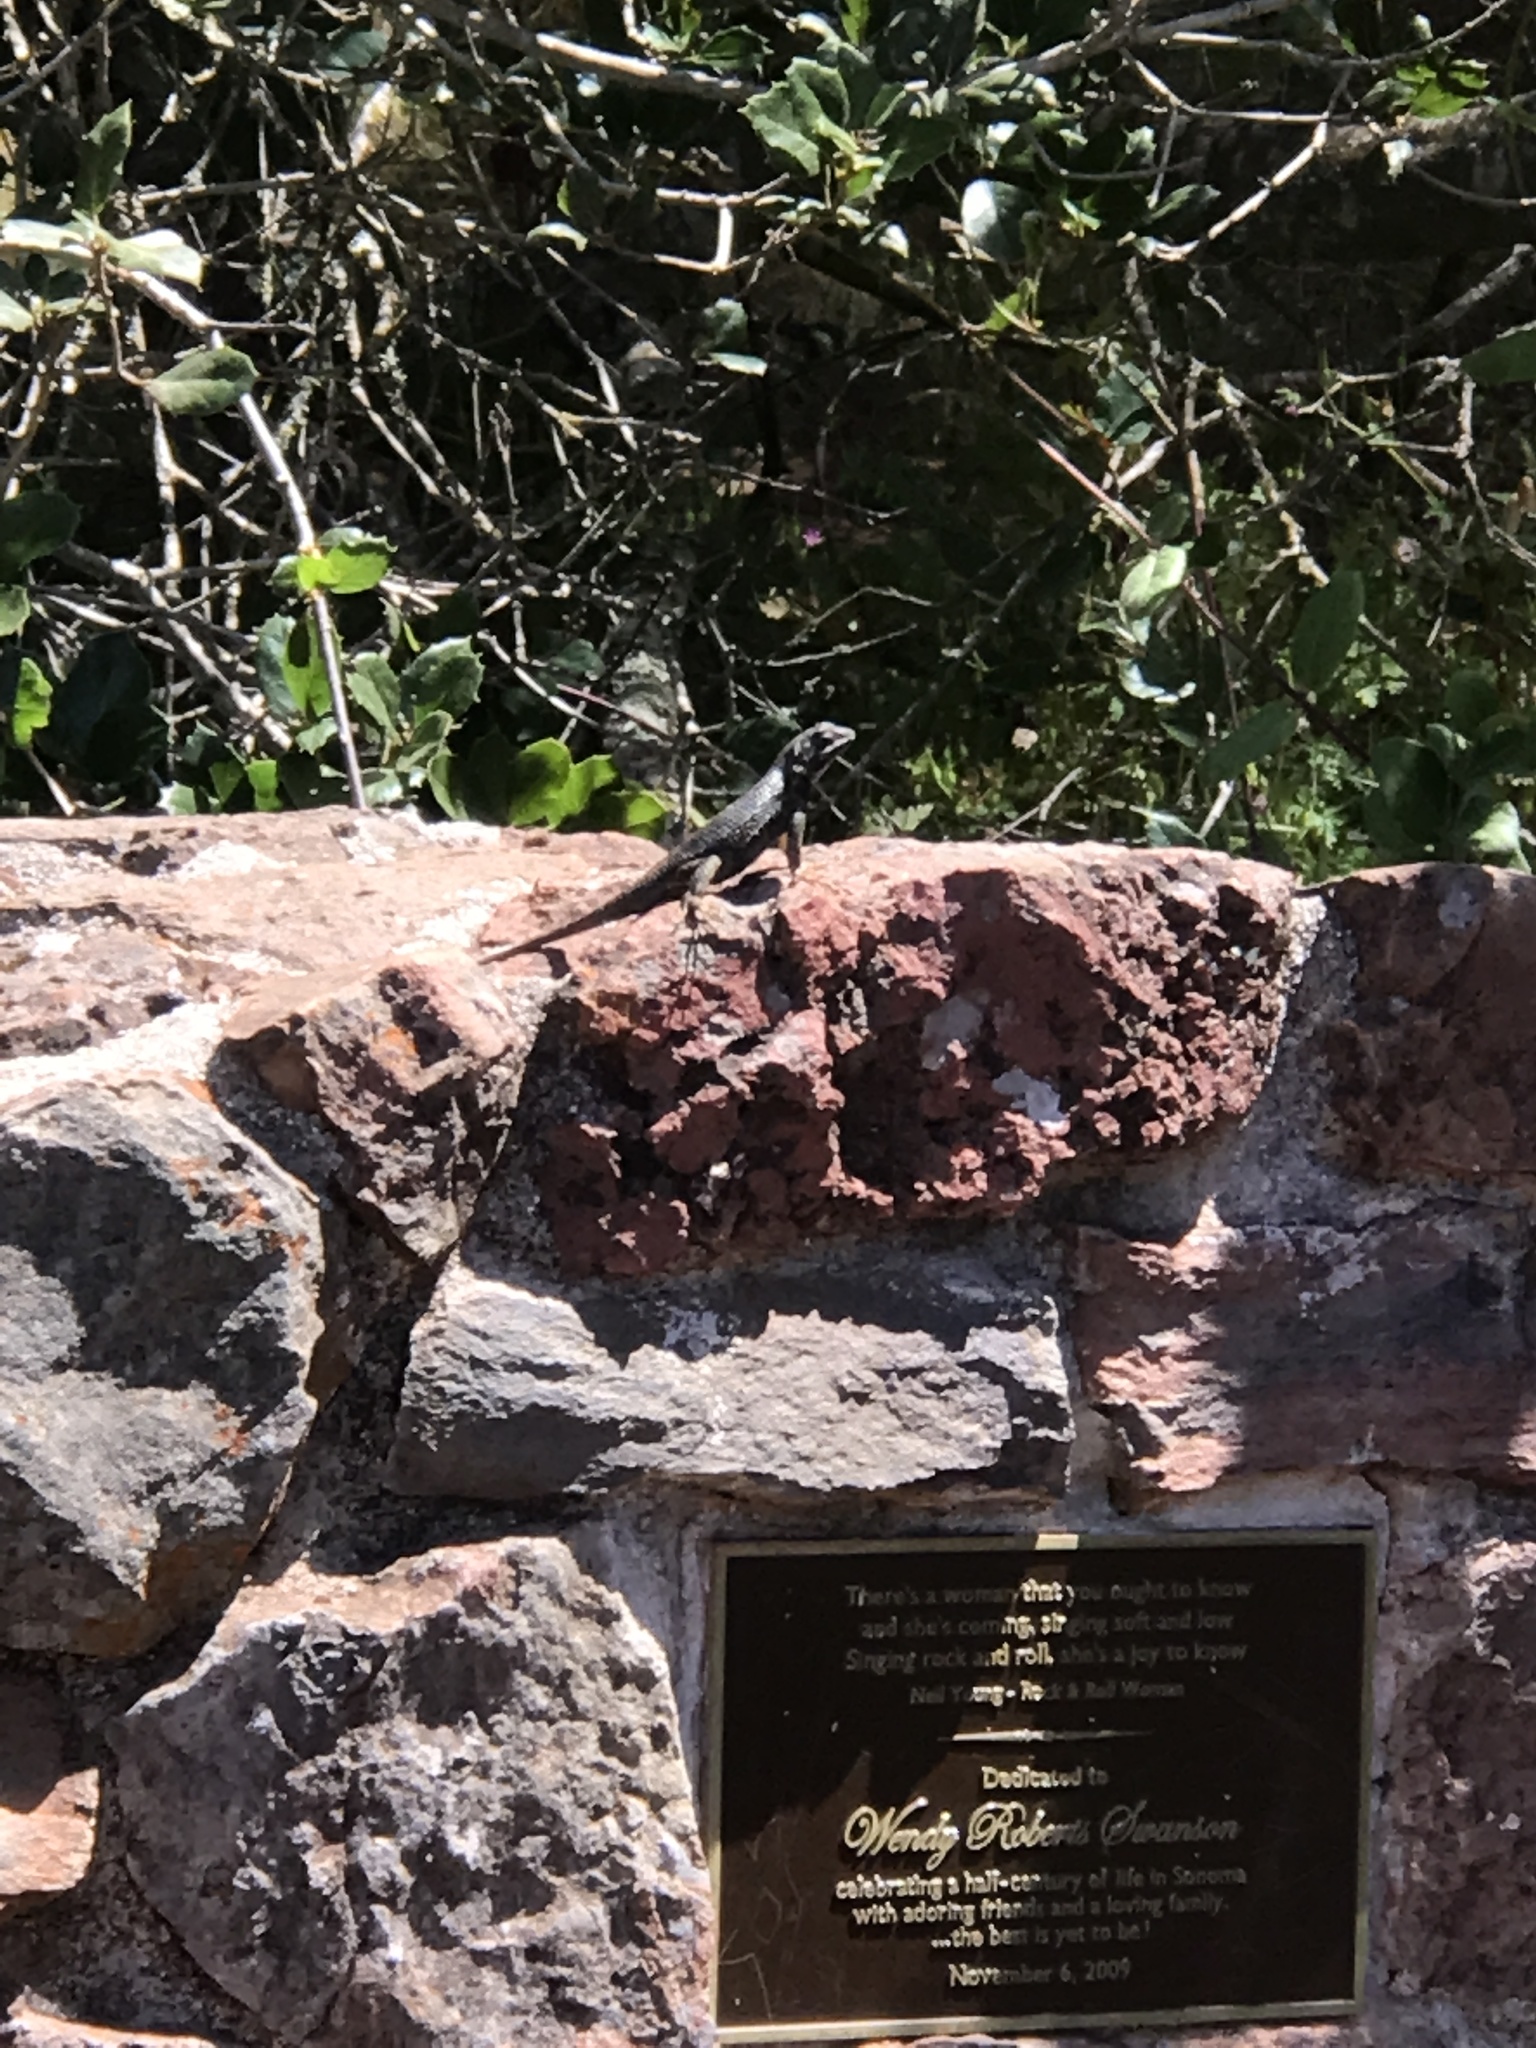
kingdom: Animalia
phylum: Chordata
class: Squamata
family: Phrynosomatidae
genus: Sceloporus
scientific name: Sceloporus occidentalis
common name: Western fence lizard
